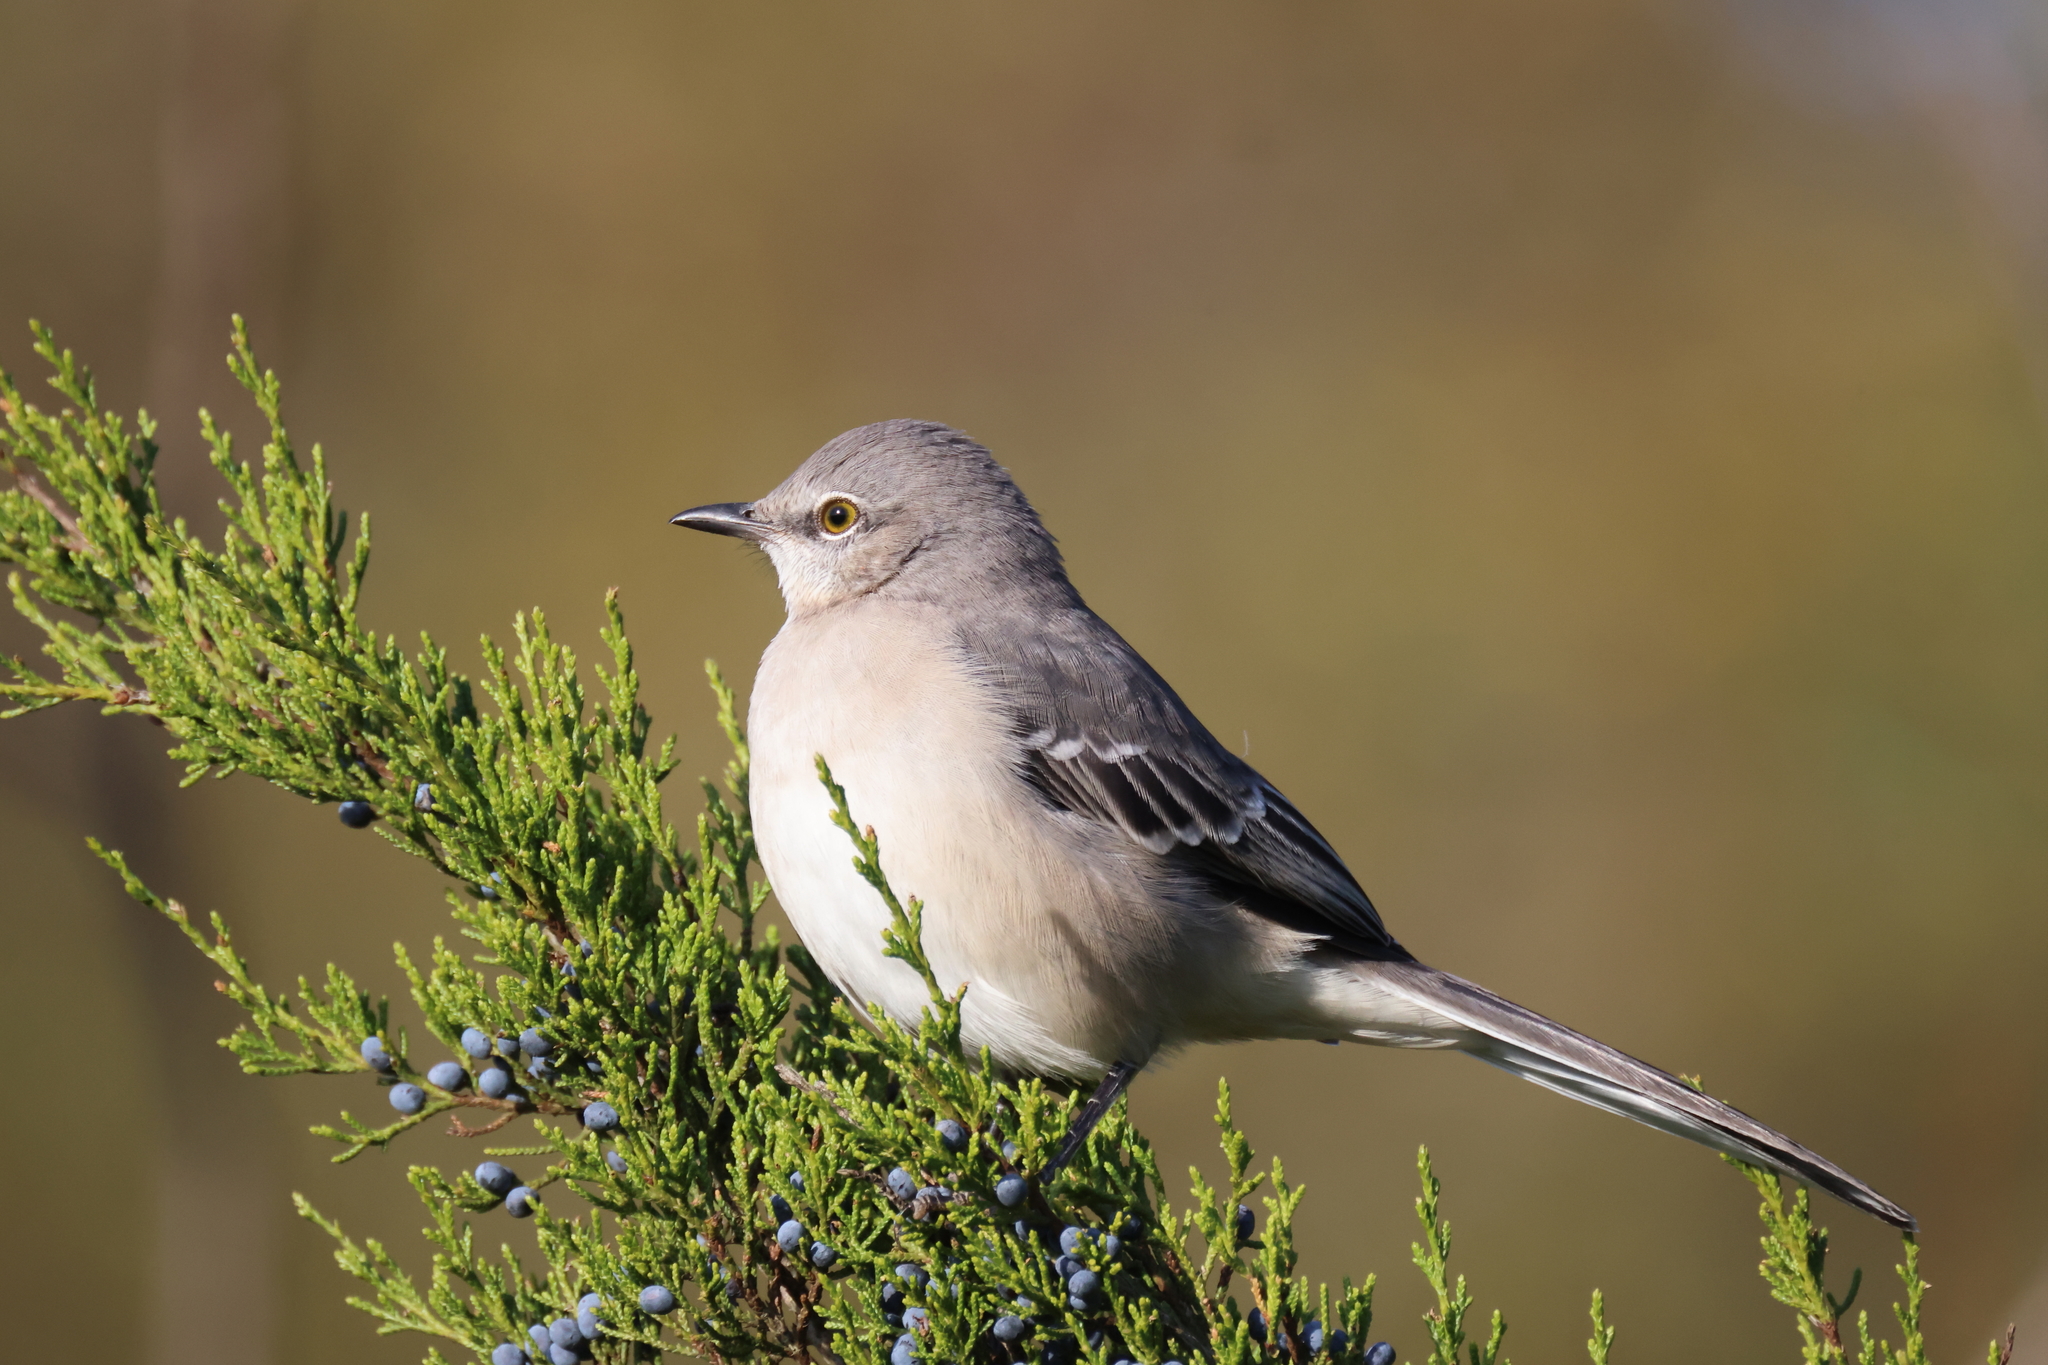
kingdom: Animalia
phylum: Chordata
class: Aves
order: Passeriformes
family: Mimidae
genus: Mimus
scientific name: Mimus polyglottos
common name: Northern mockingbird
